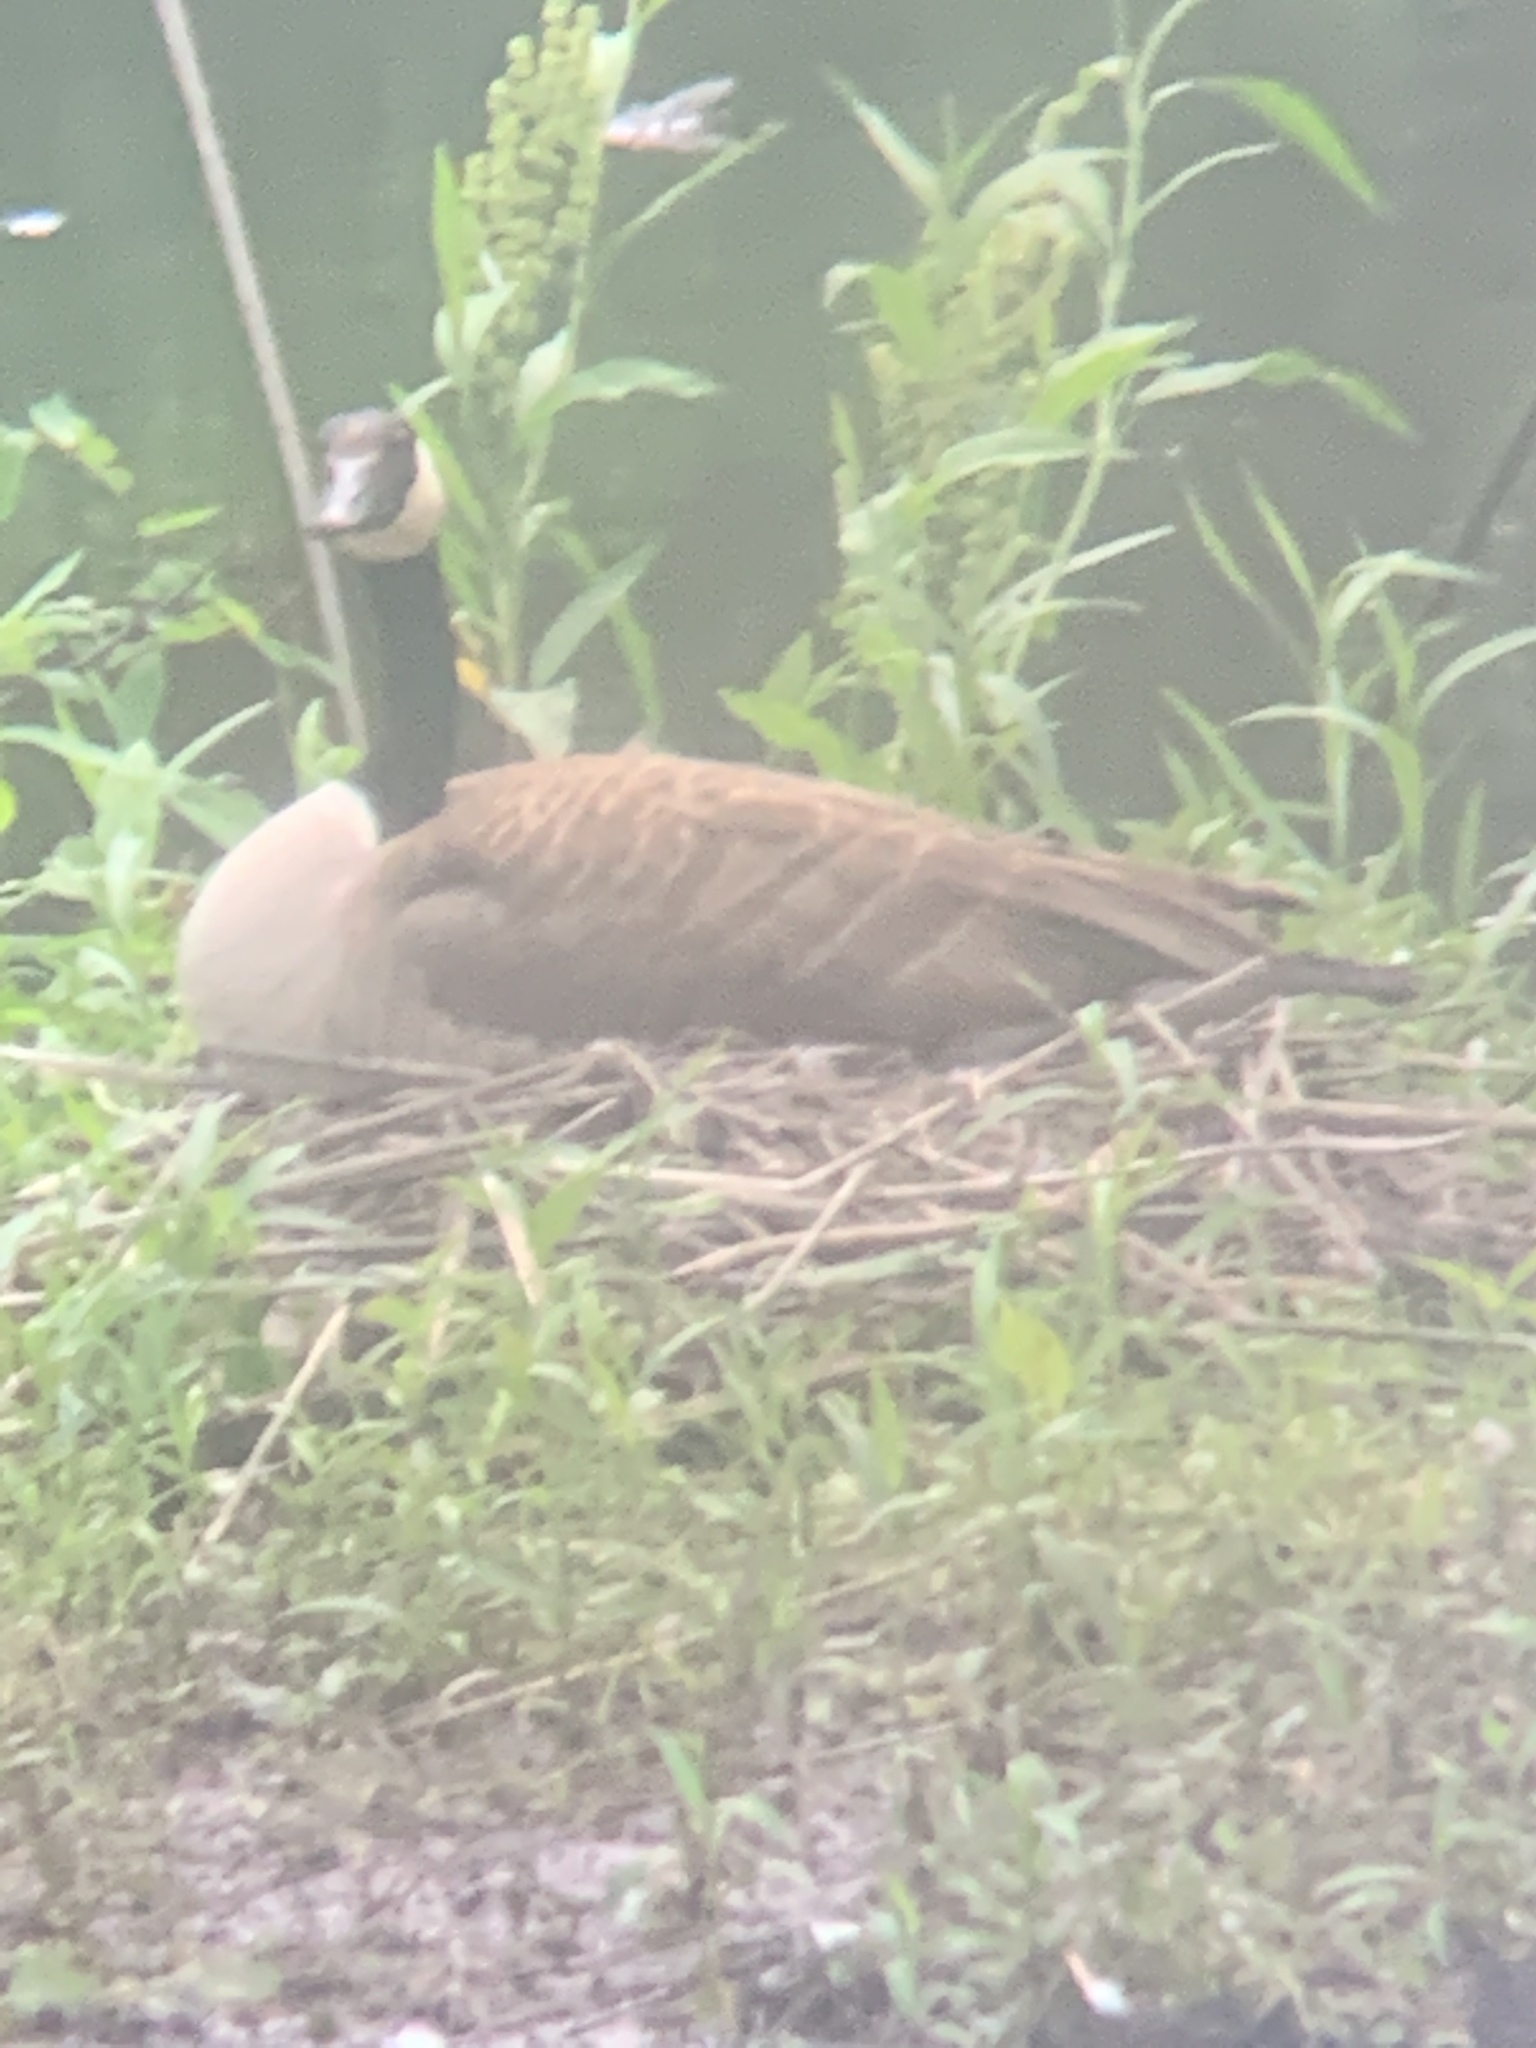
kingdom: Animalia
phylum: Chordata
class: Aves
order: Anseriformes
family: Anatidae
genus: Branta
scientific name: Branta canadensis
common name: Canada goose
